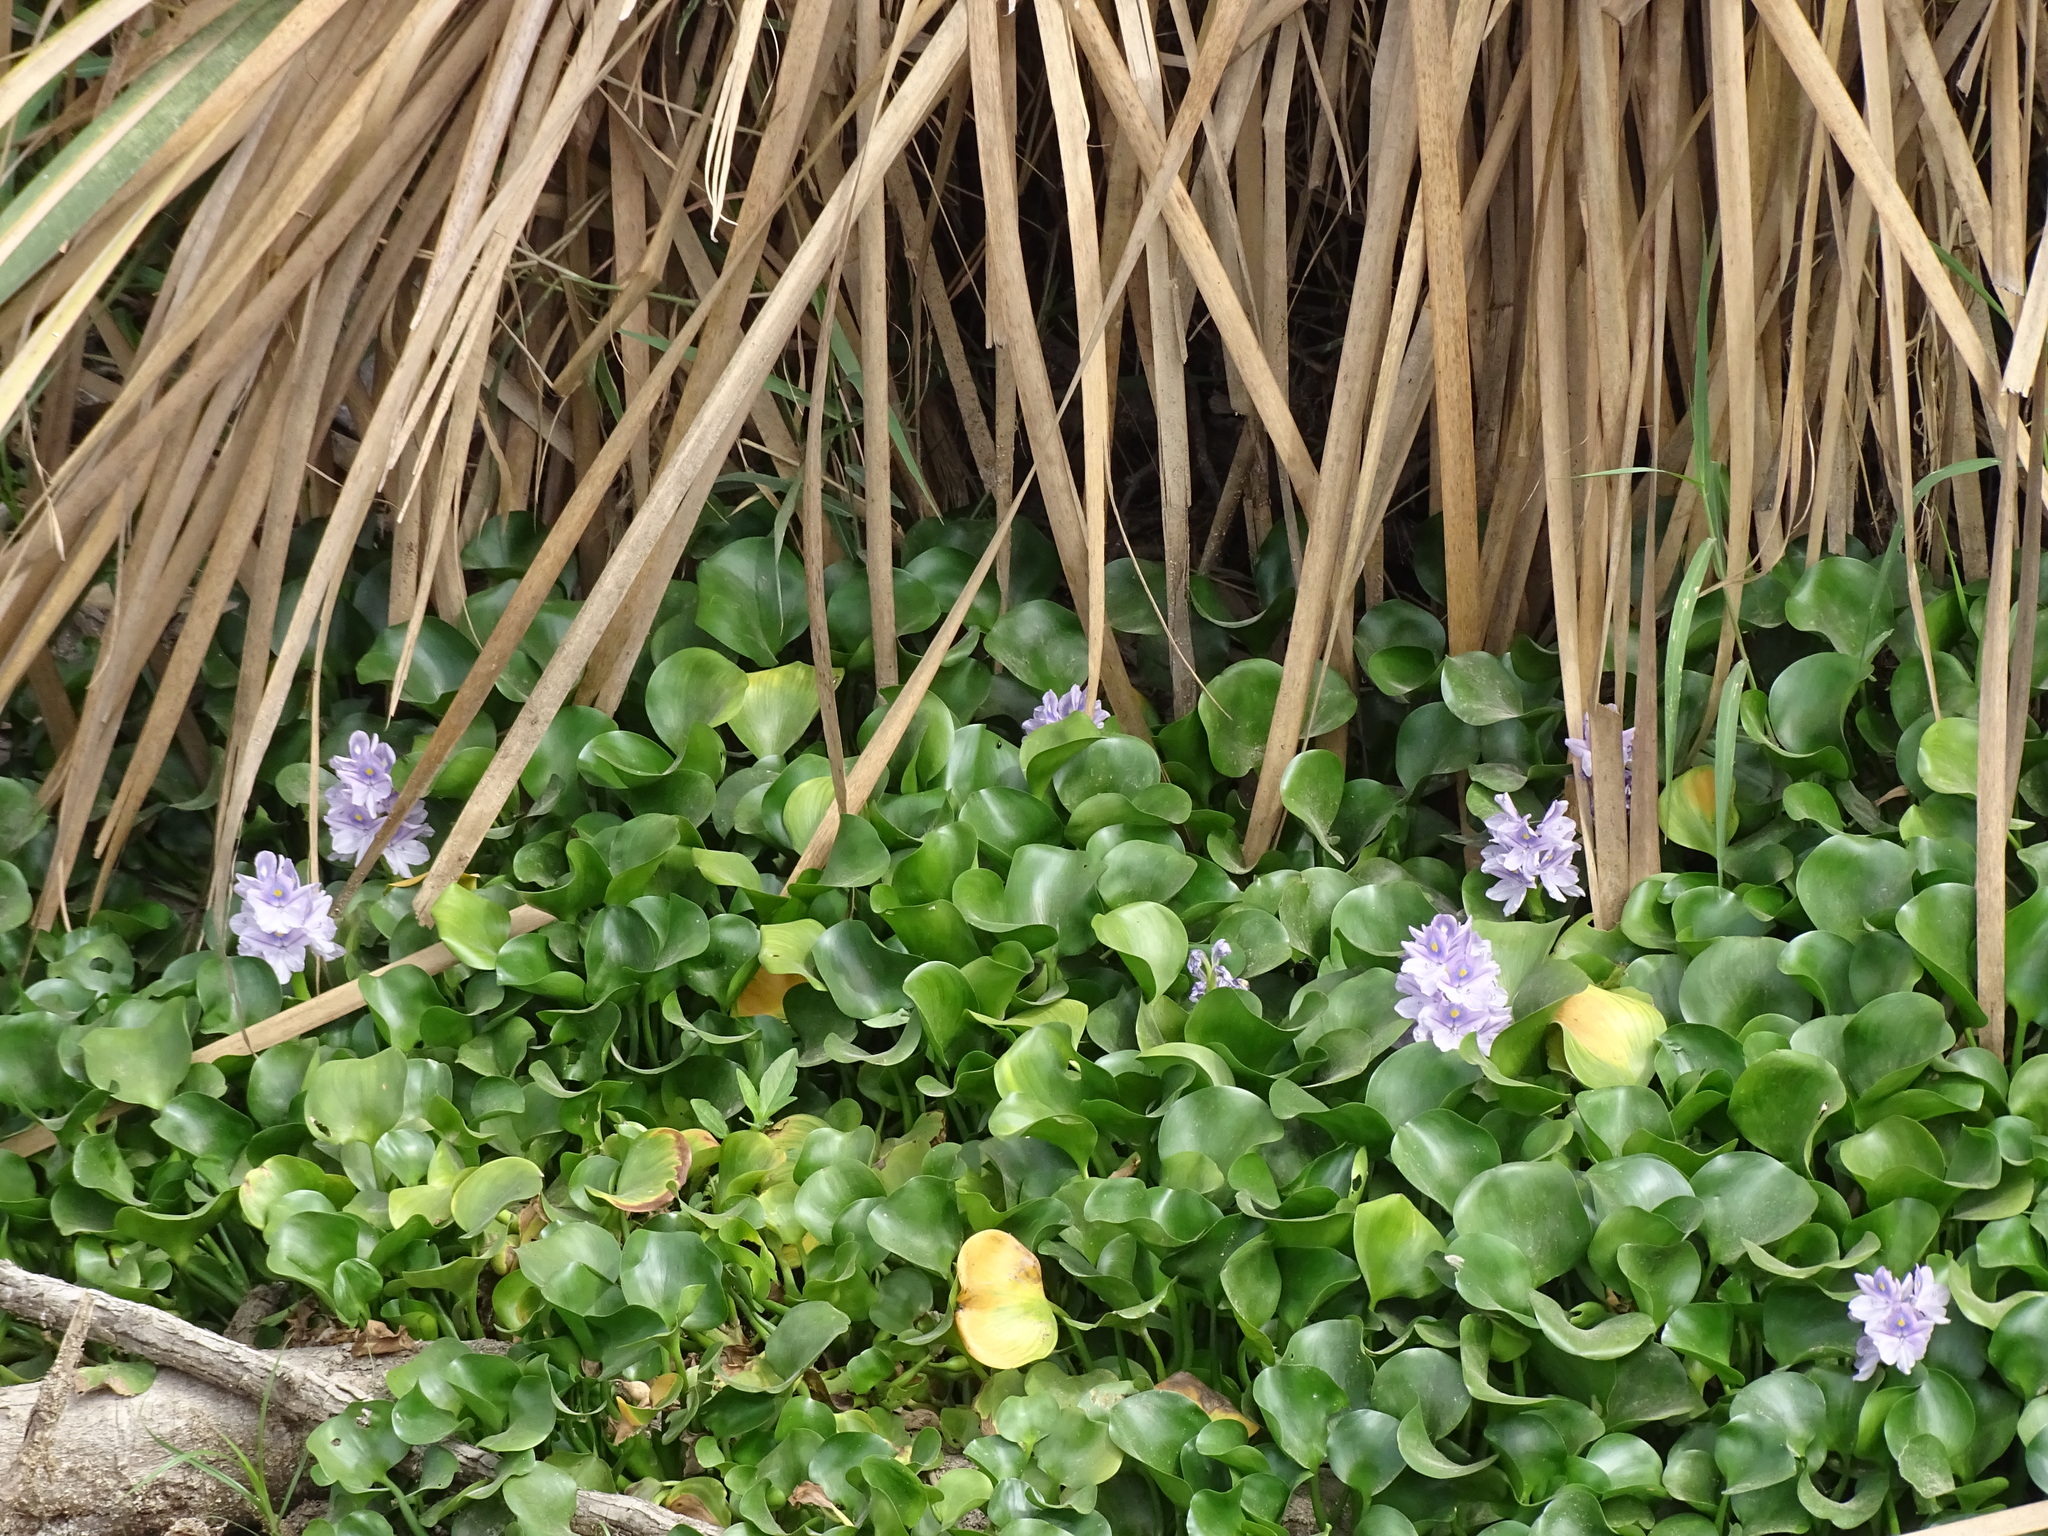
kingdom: Plantae
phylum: Tracheophyta
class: Liliopsida
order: Commelinales
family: Pontederiaceae
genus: Pontederia
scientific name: Pontederia crassipes
